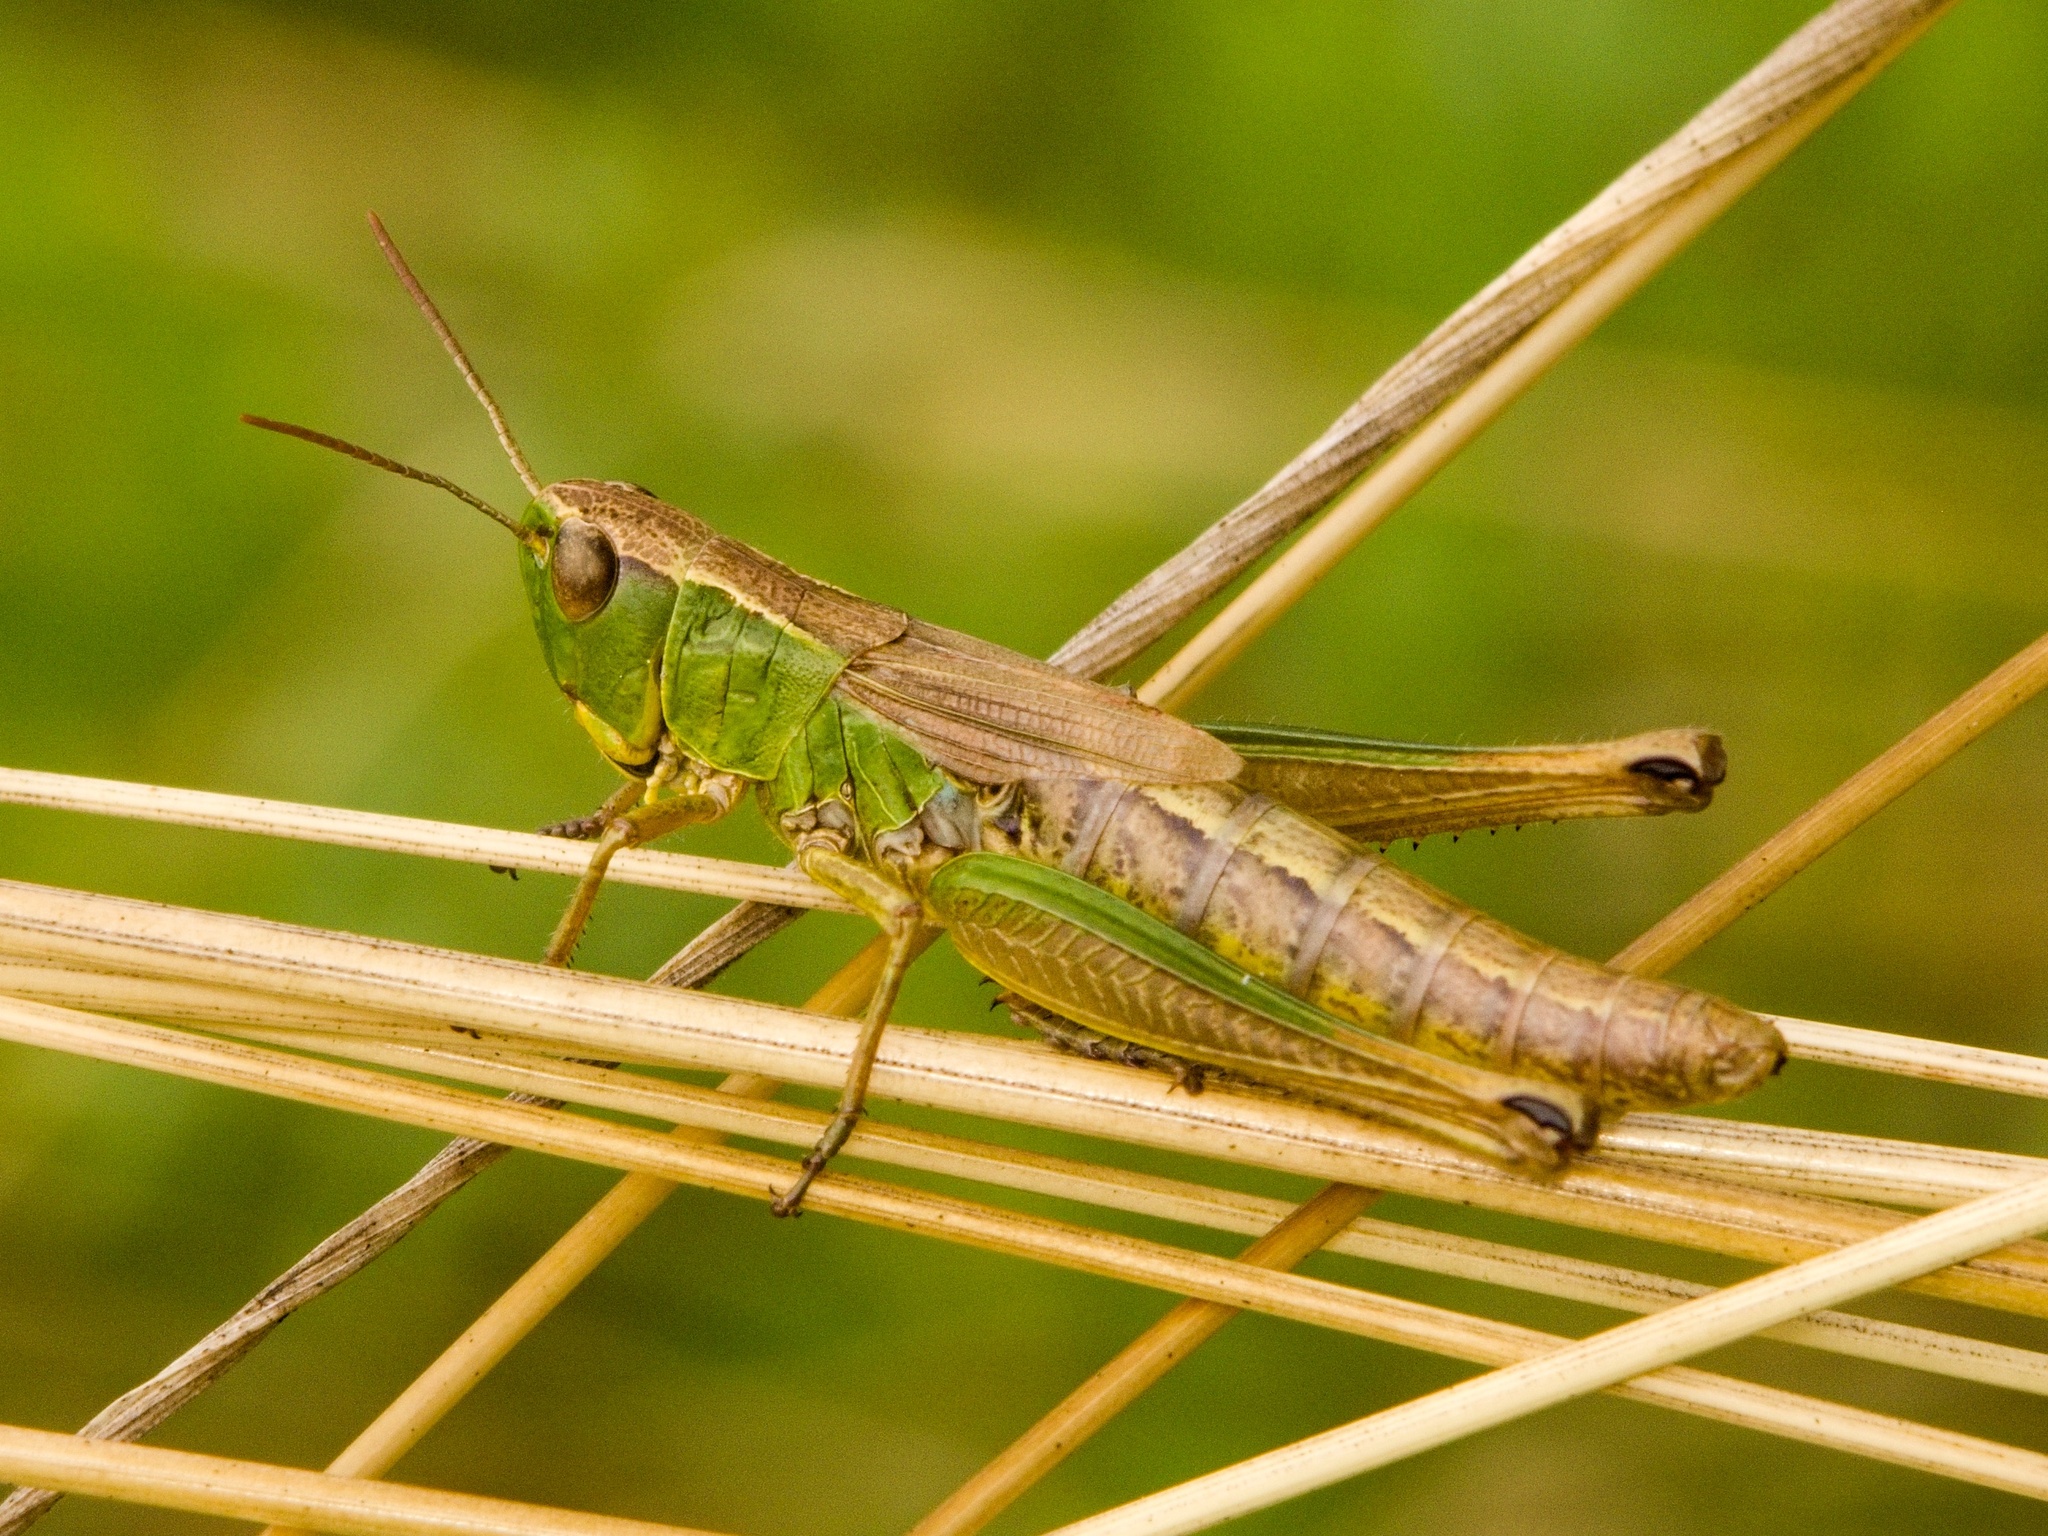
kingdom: Animalia
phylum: Arthropoda
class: Insecta
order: Orthoptera
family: Acrididae
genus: Pseudochorthippus
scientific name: Pseudochorthippus parallelus
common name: Meadow grasshopper
